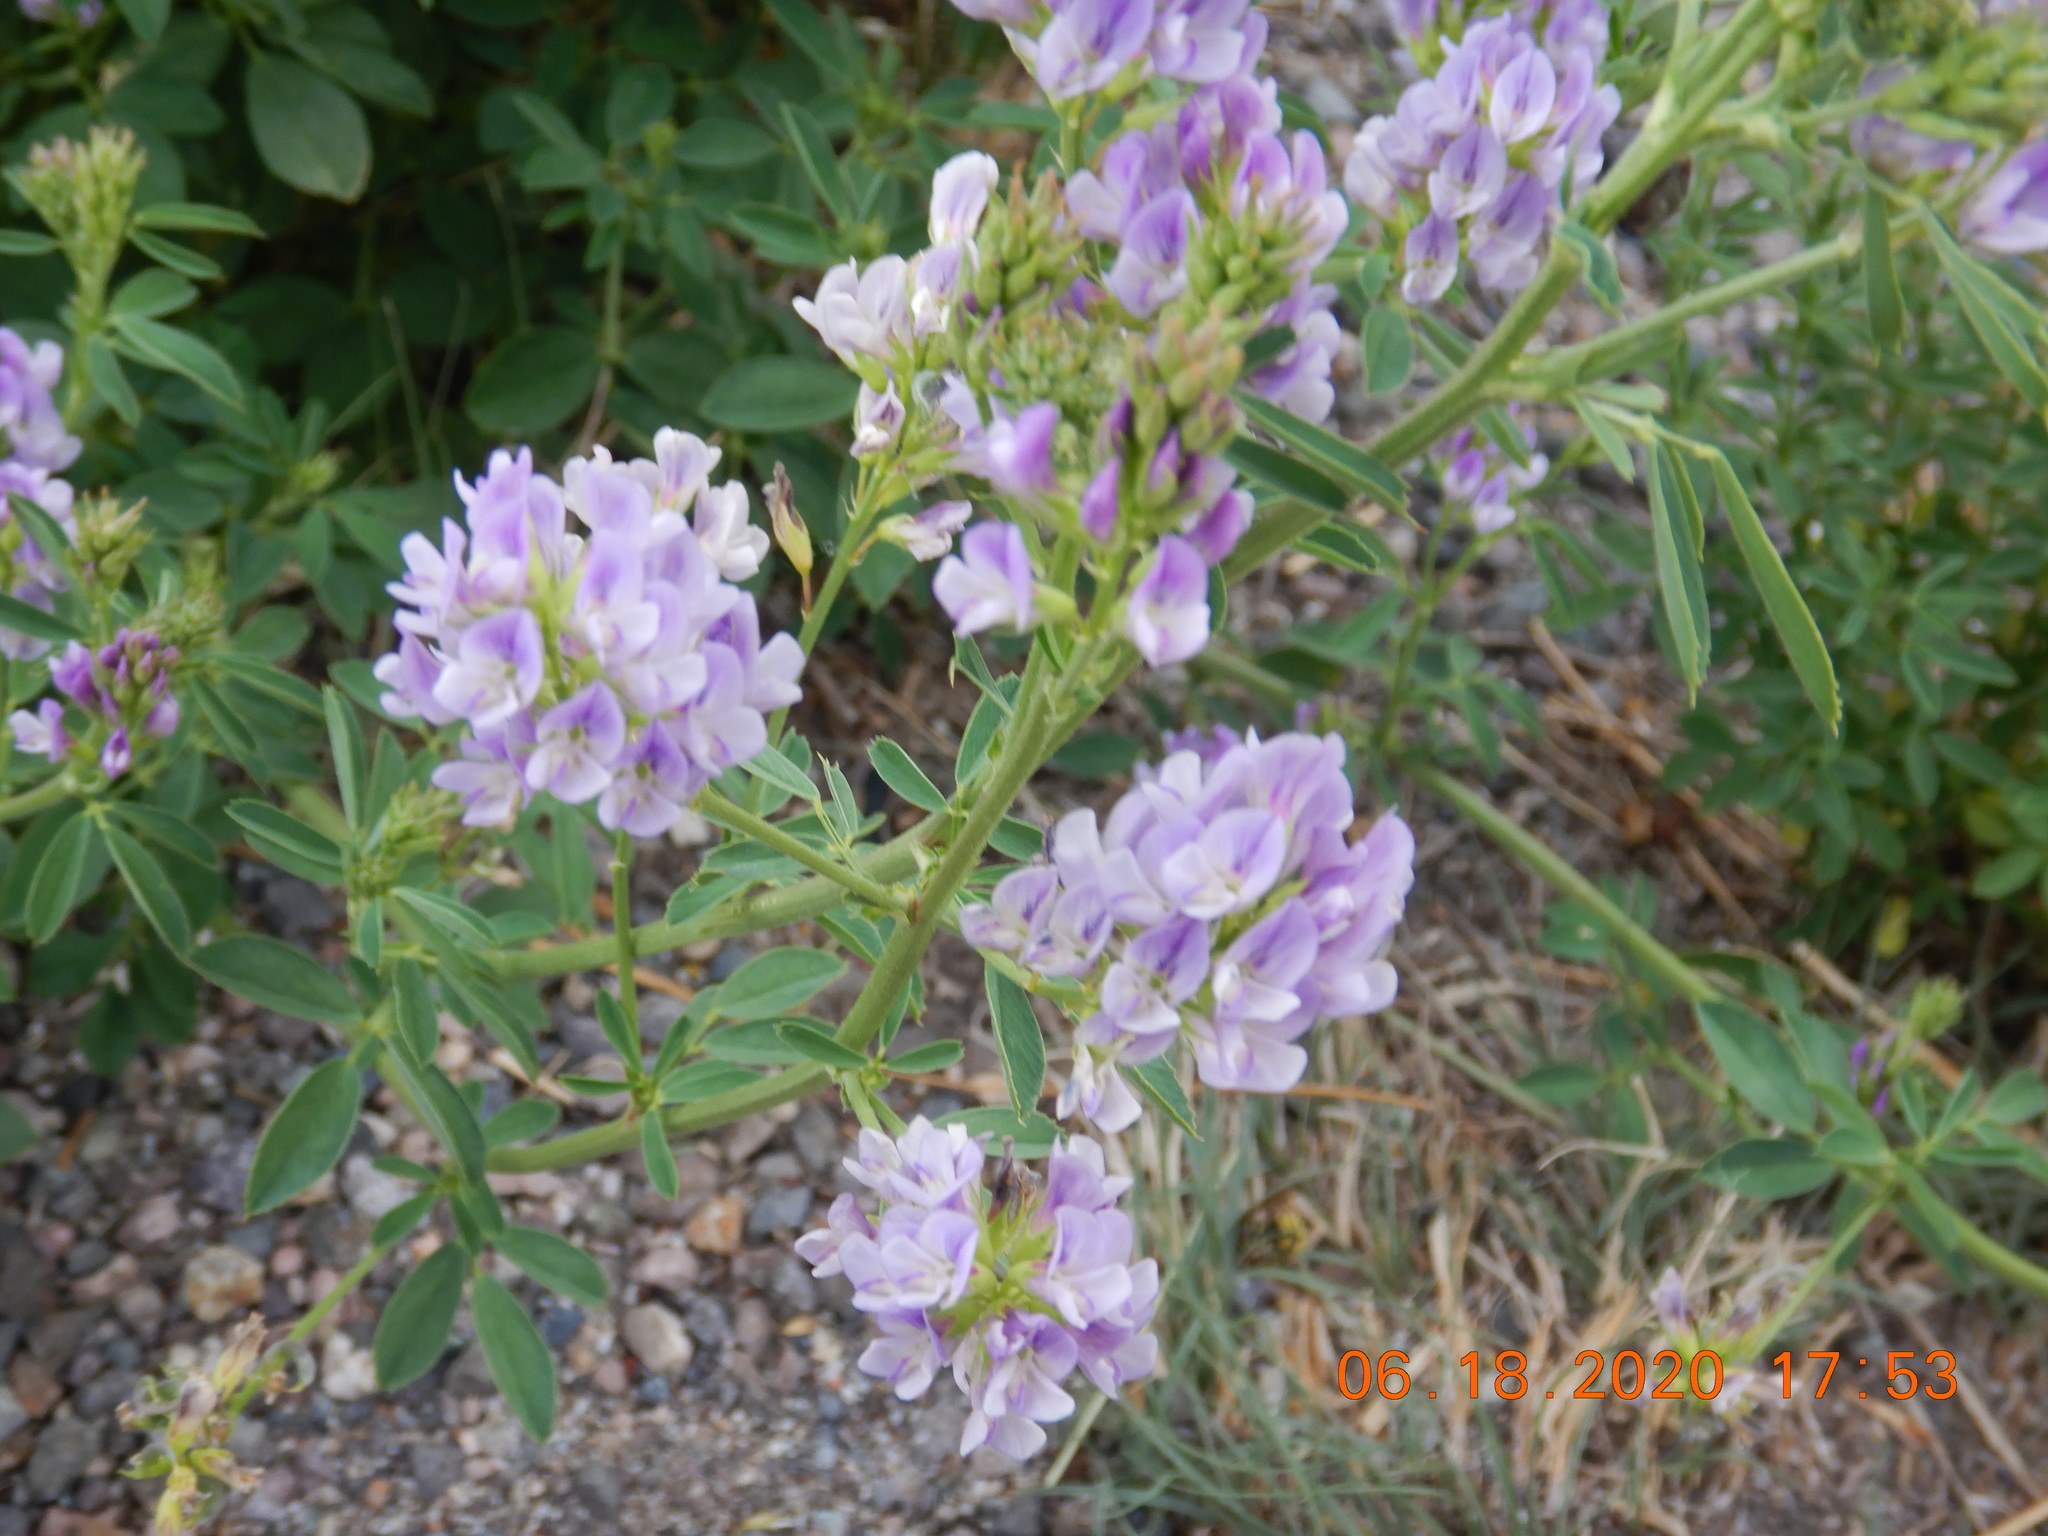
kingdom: Plantae
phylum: Tracheophyta
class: Magnoliopsida
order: Fabales
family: Fabaceae
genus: Medicago
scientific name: Medicago sativa
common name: Alfalfa
